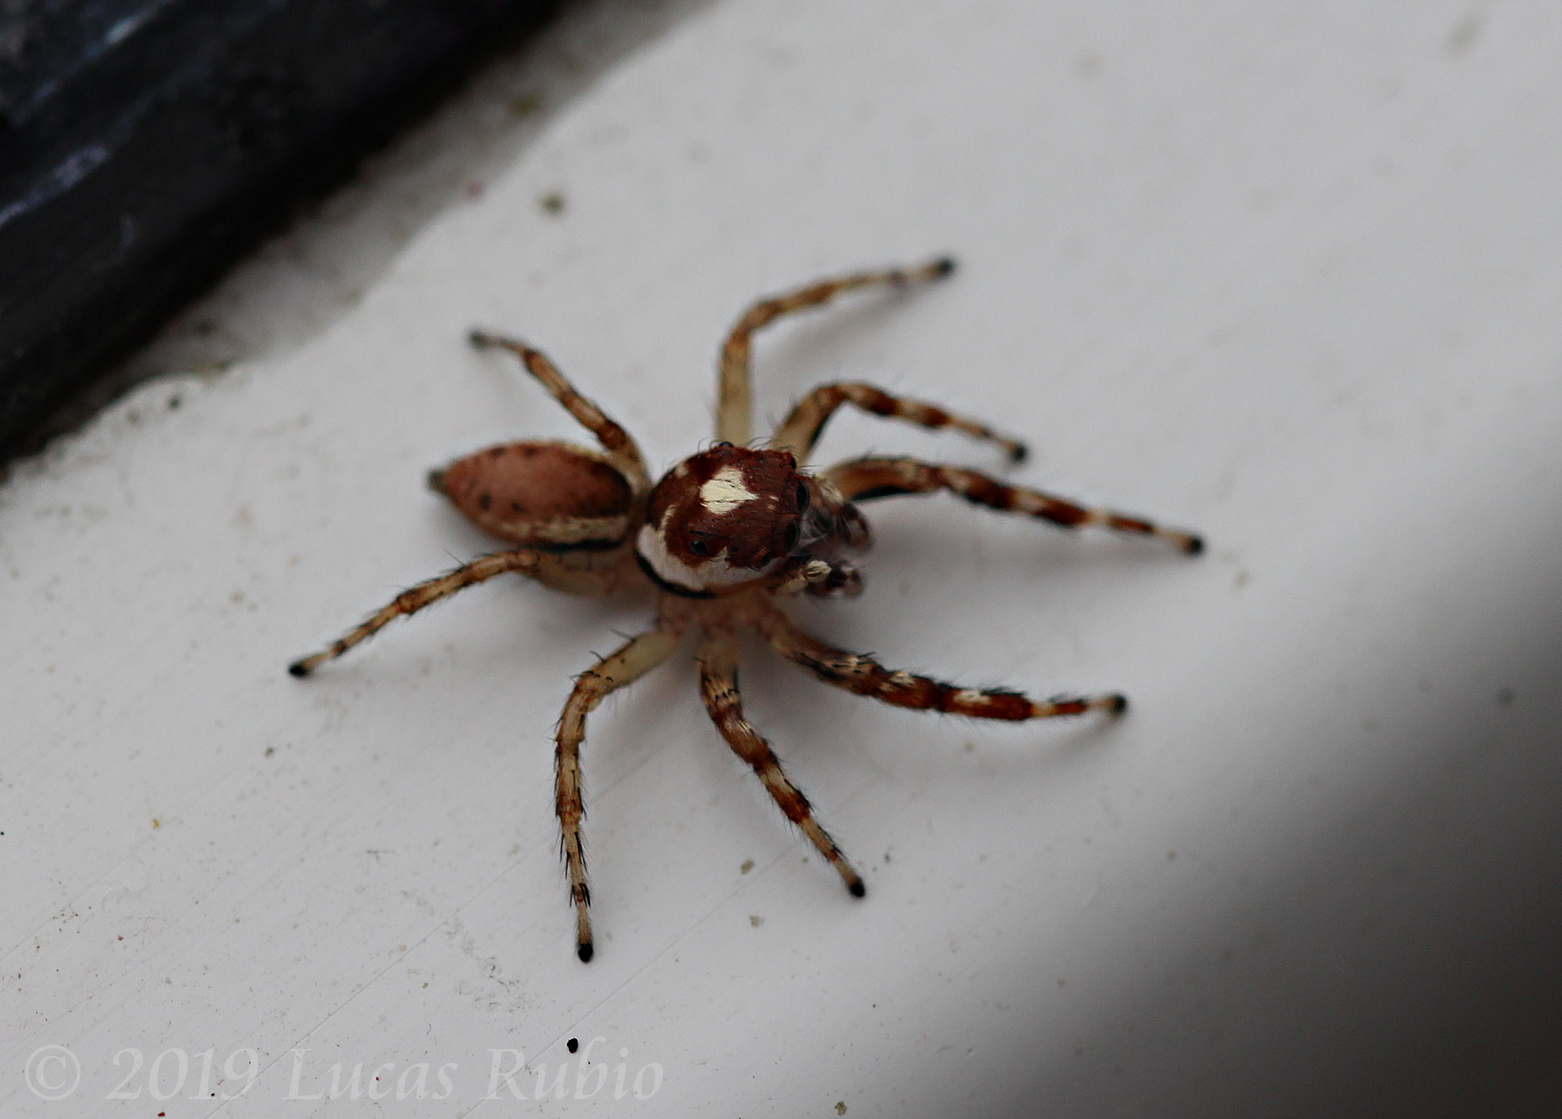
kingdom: Animalia
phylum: Arthropoda
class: Arachnida
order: Araneae
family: Salticidae
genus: Chira
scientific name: Chira gounellei
